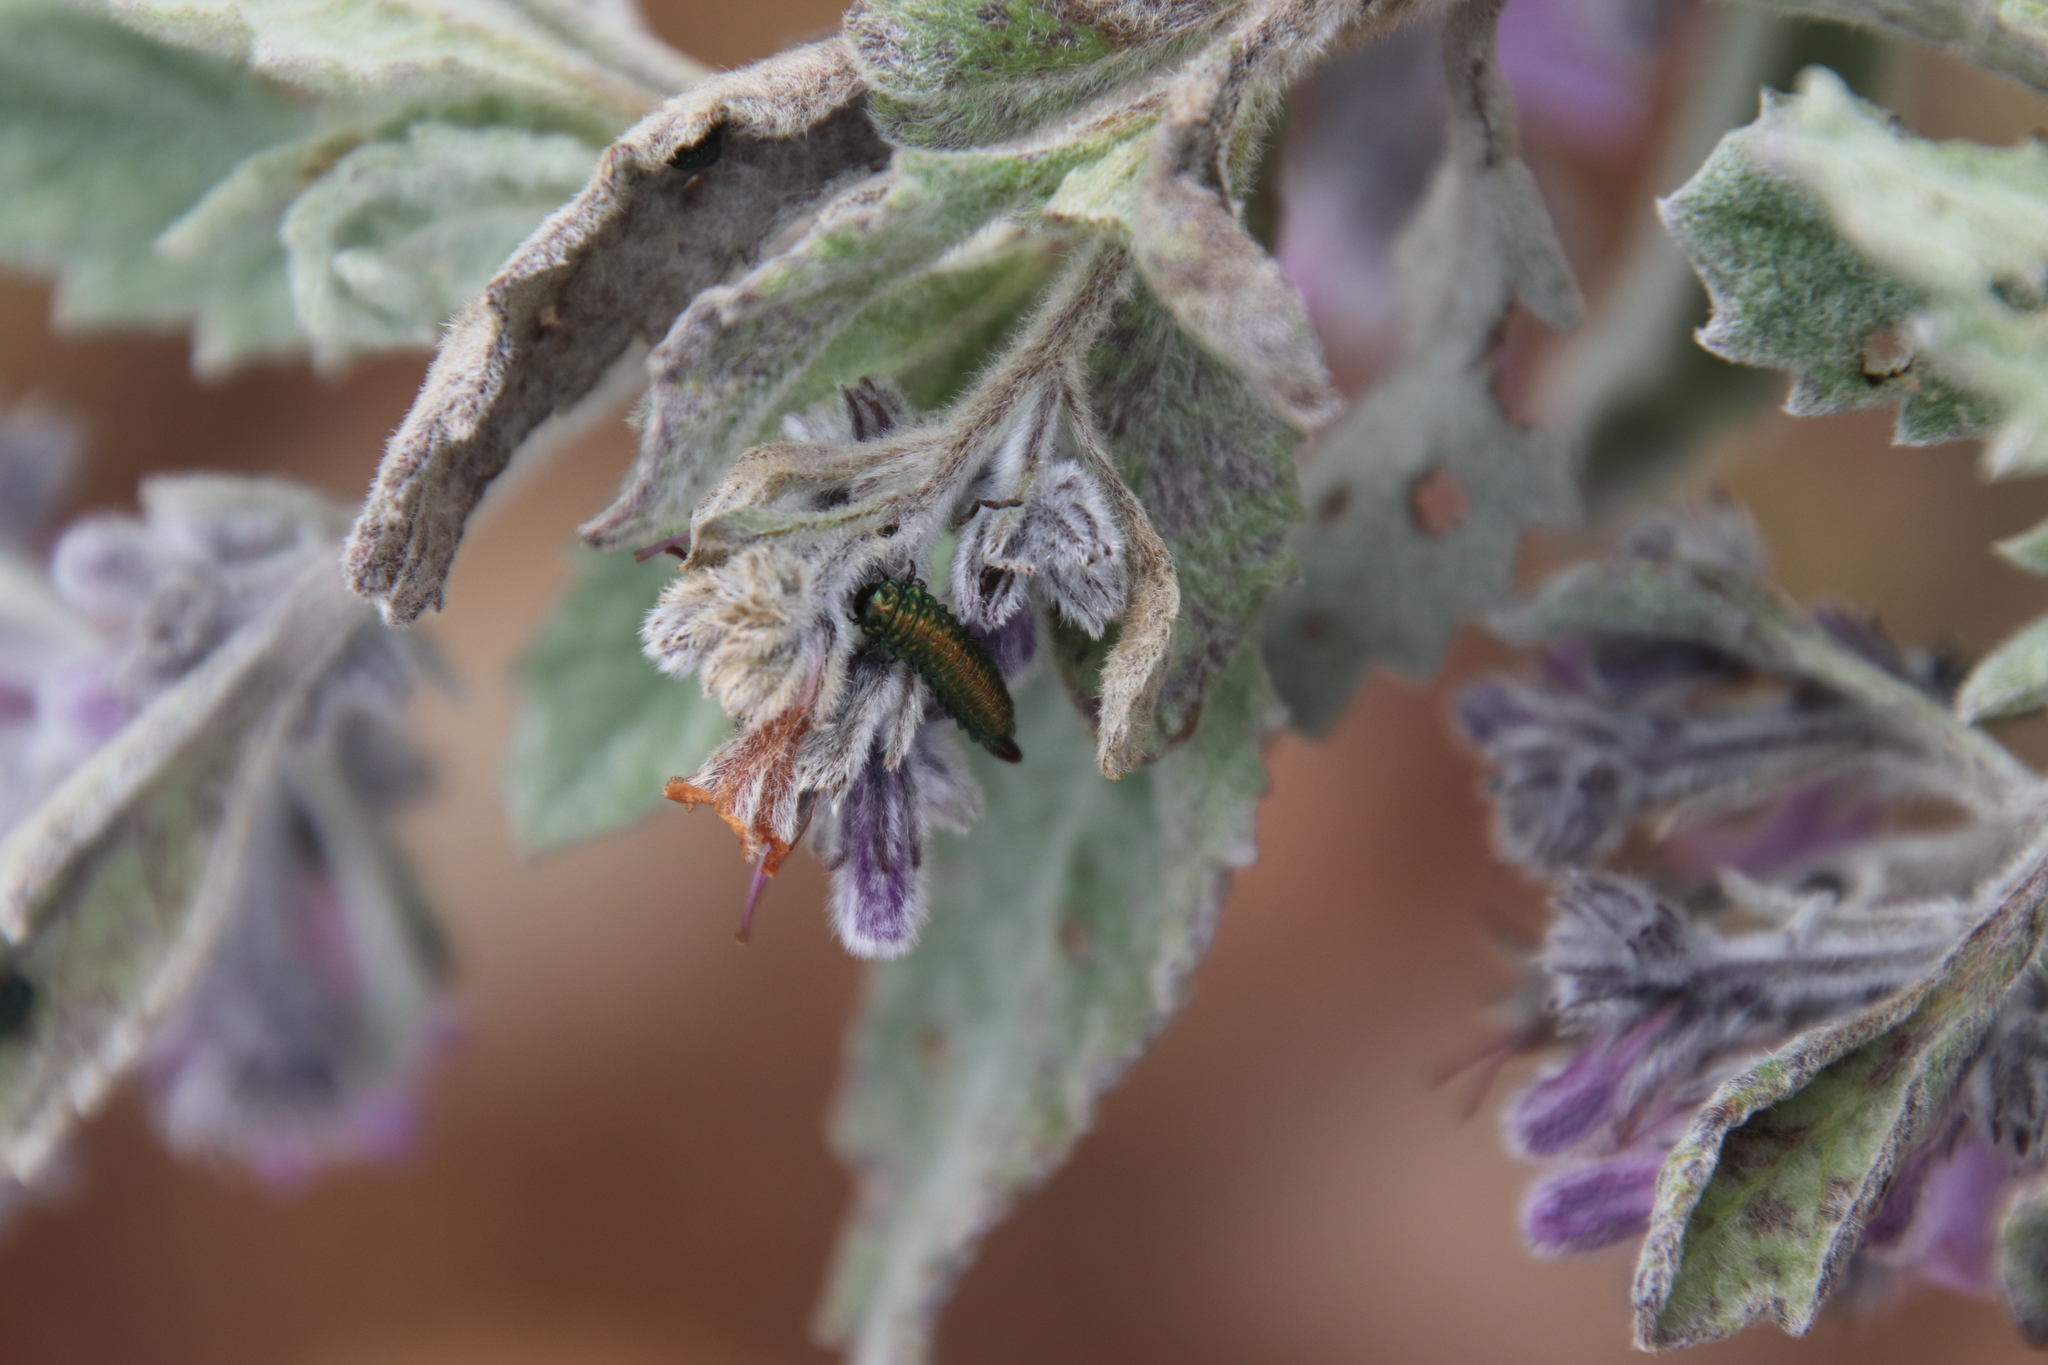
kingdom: Plantae
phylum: Tracheophyta
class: Magnoliopsida
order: Boraginales
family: Namaceae
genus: Eriodictyon
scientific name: Eriodictyon crassifolium
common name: Thick-leaf yerba-santa
